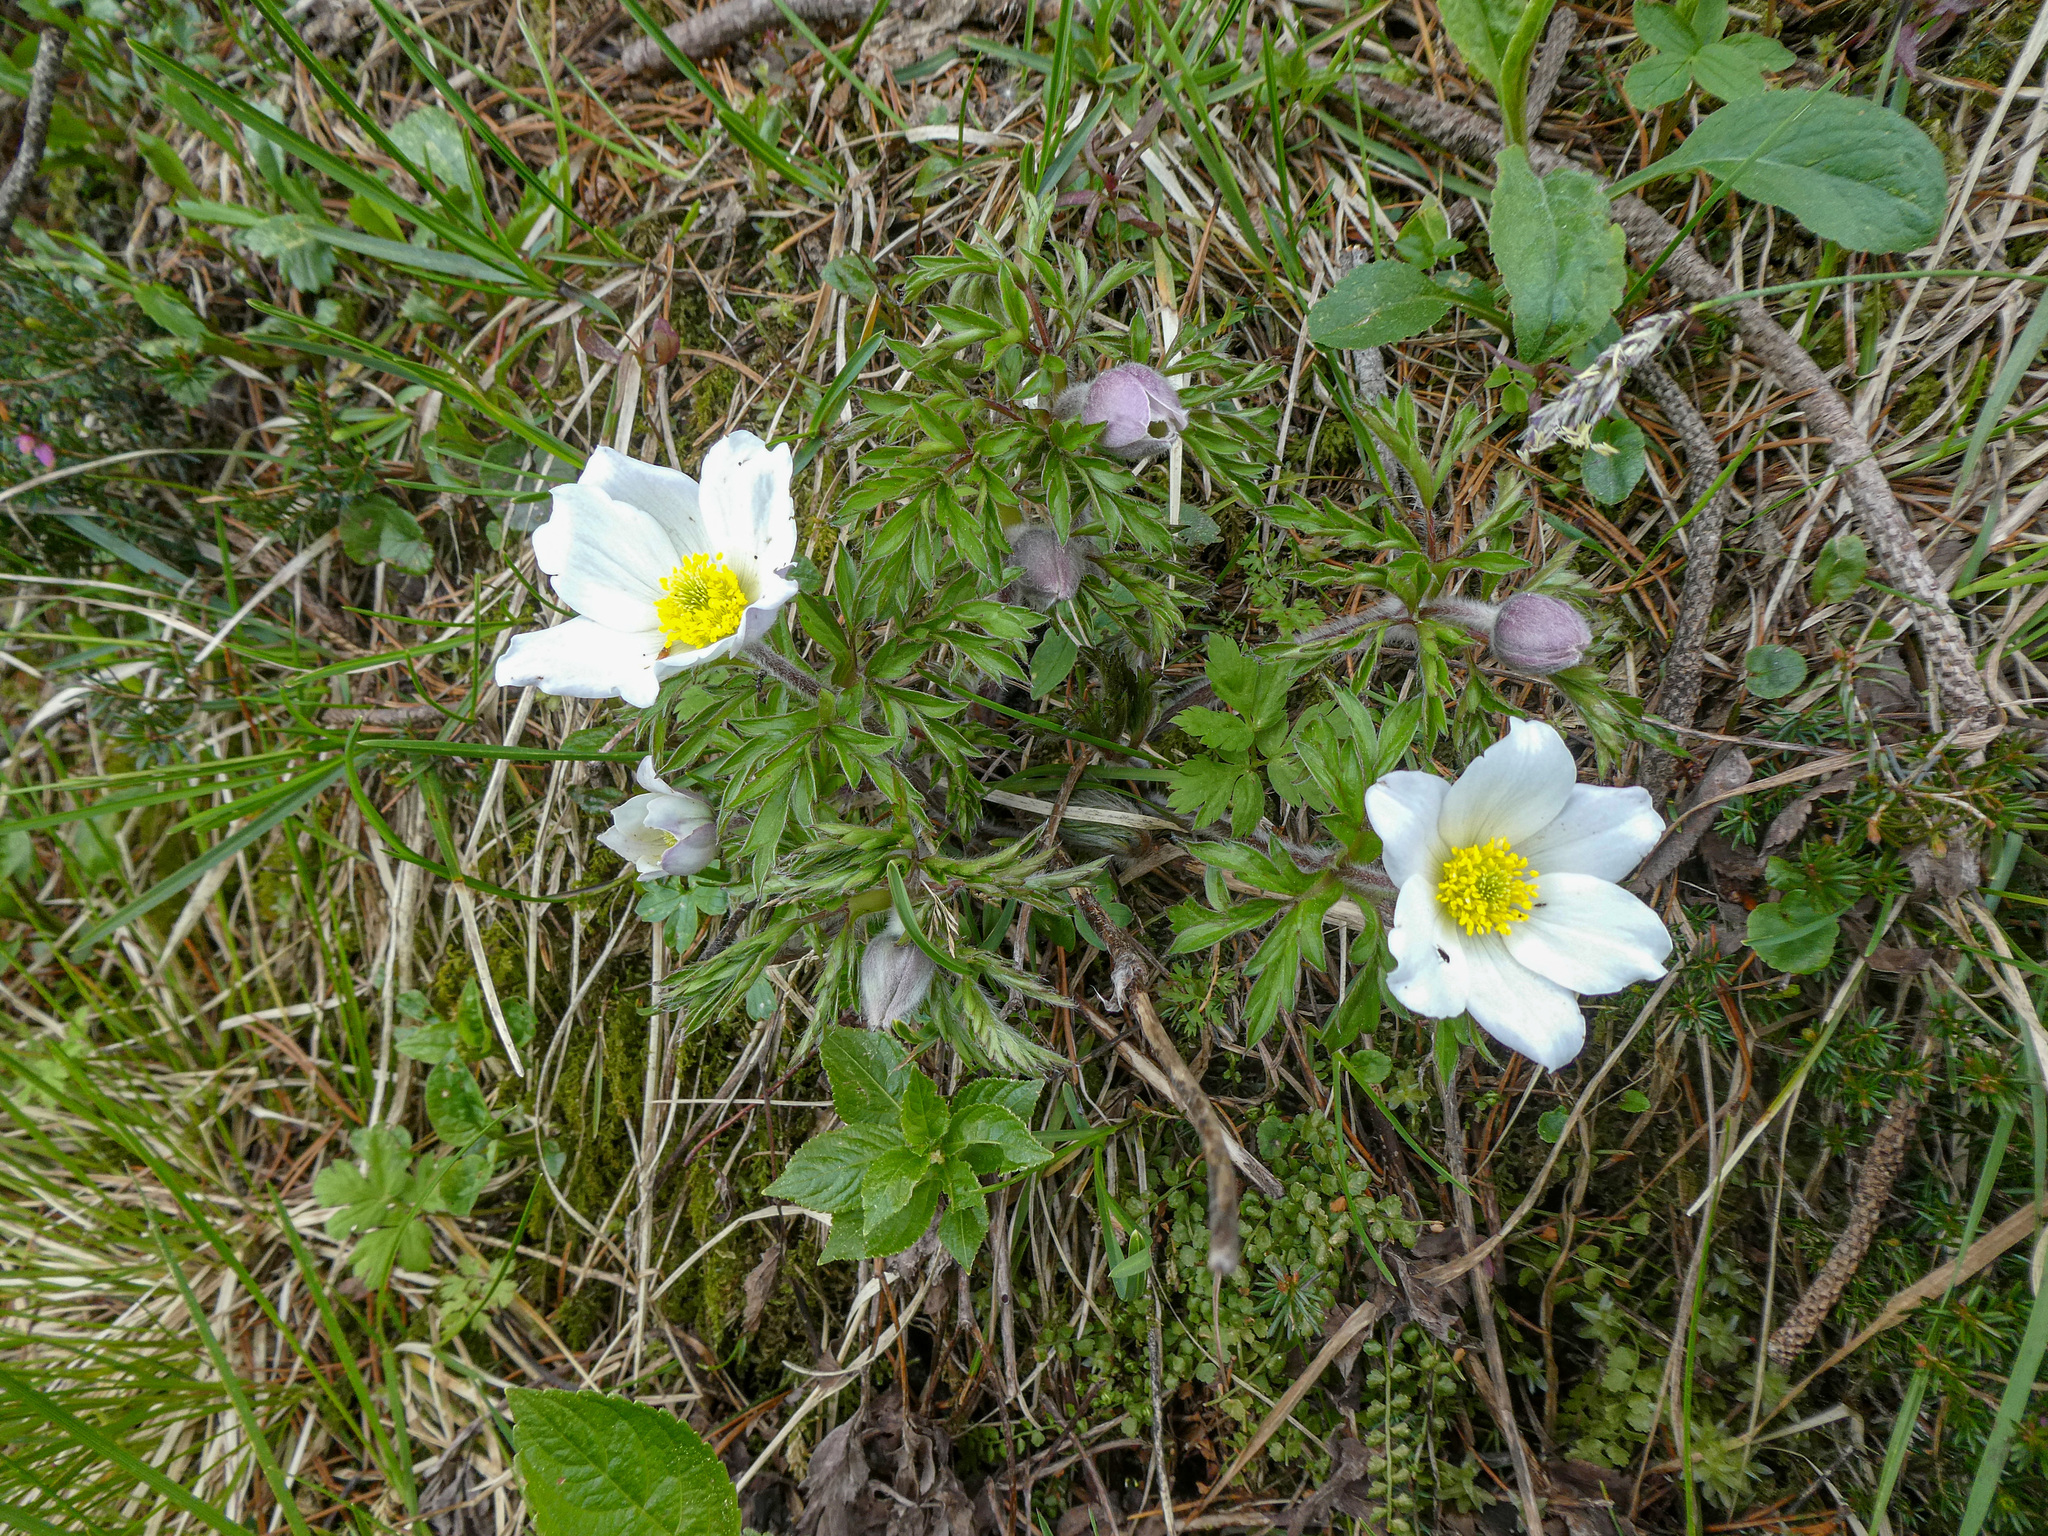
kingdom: Plantae
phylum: Tracheophyta
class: Magnoliopsida
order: Ranunculales
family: Ranunculaceae
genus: Pulsatilla
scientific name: Pulsatilla alpina
